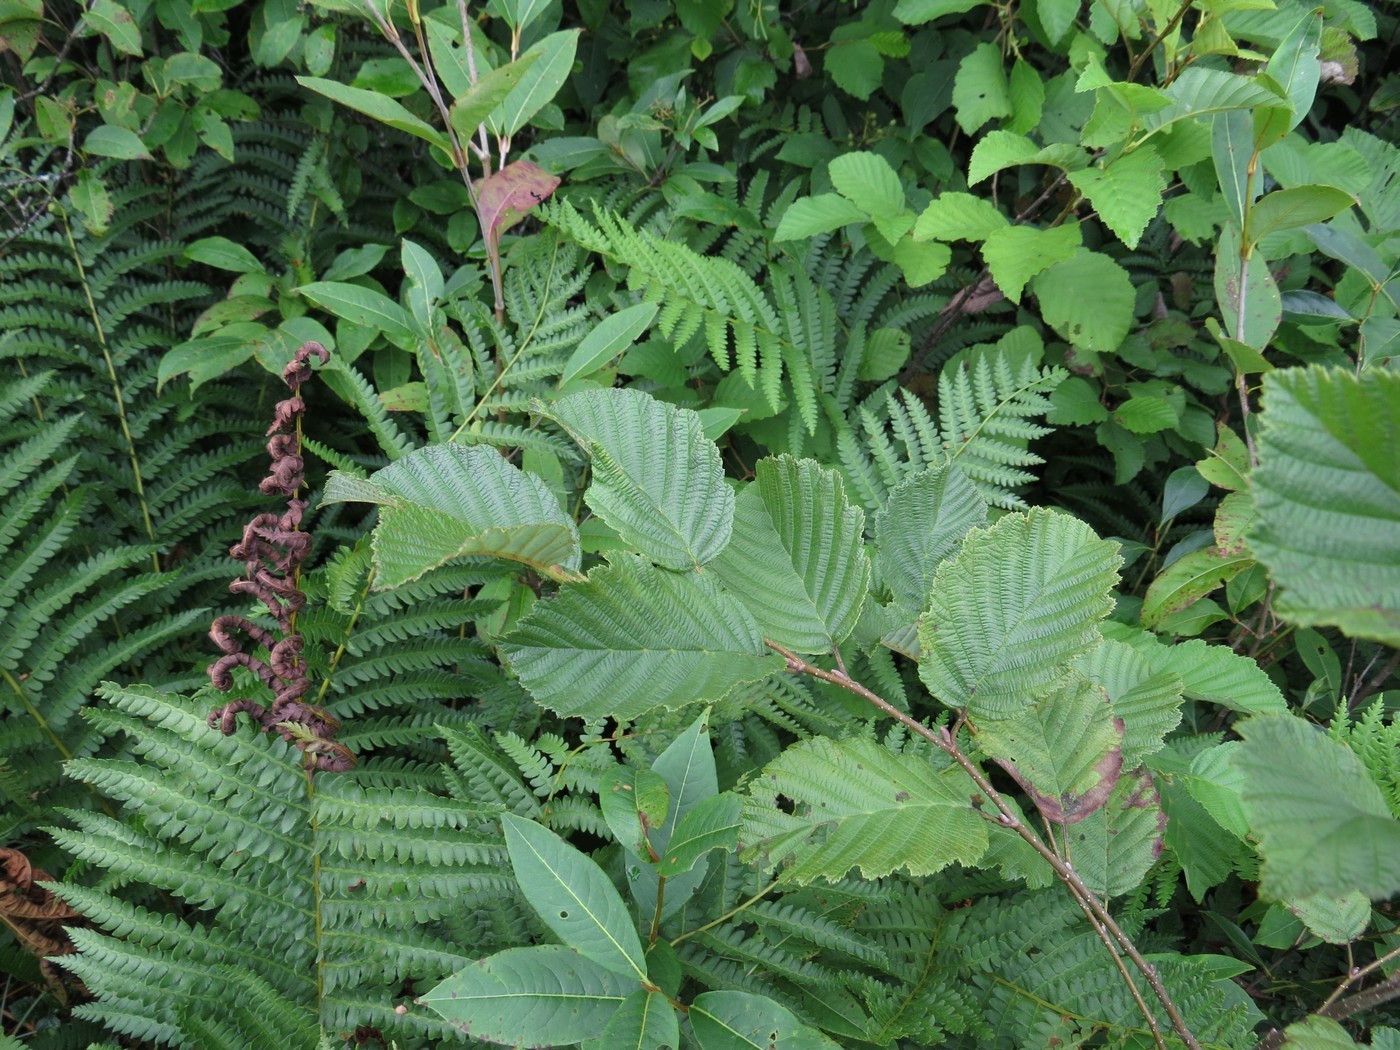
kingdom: Plantae
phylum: Tracheophyta
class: Magnoliopsida
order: Fagales
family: Betulaceae
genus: Alnus
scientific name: Alnus incana
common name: Grey alder
